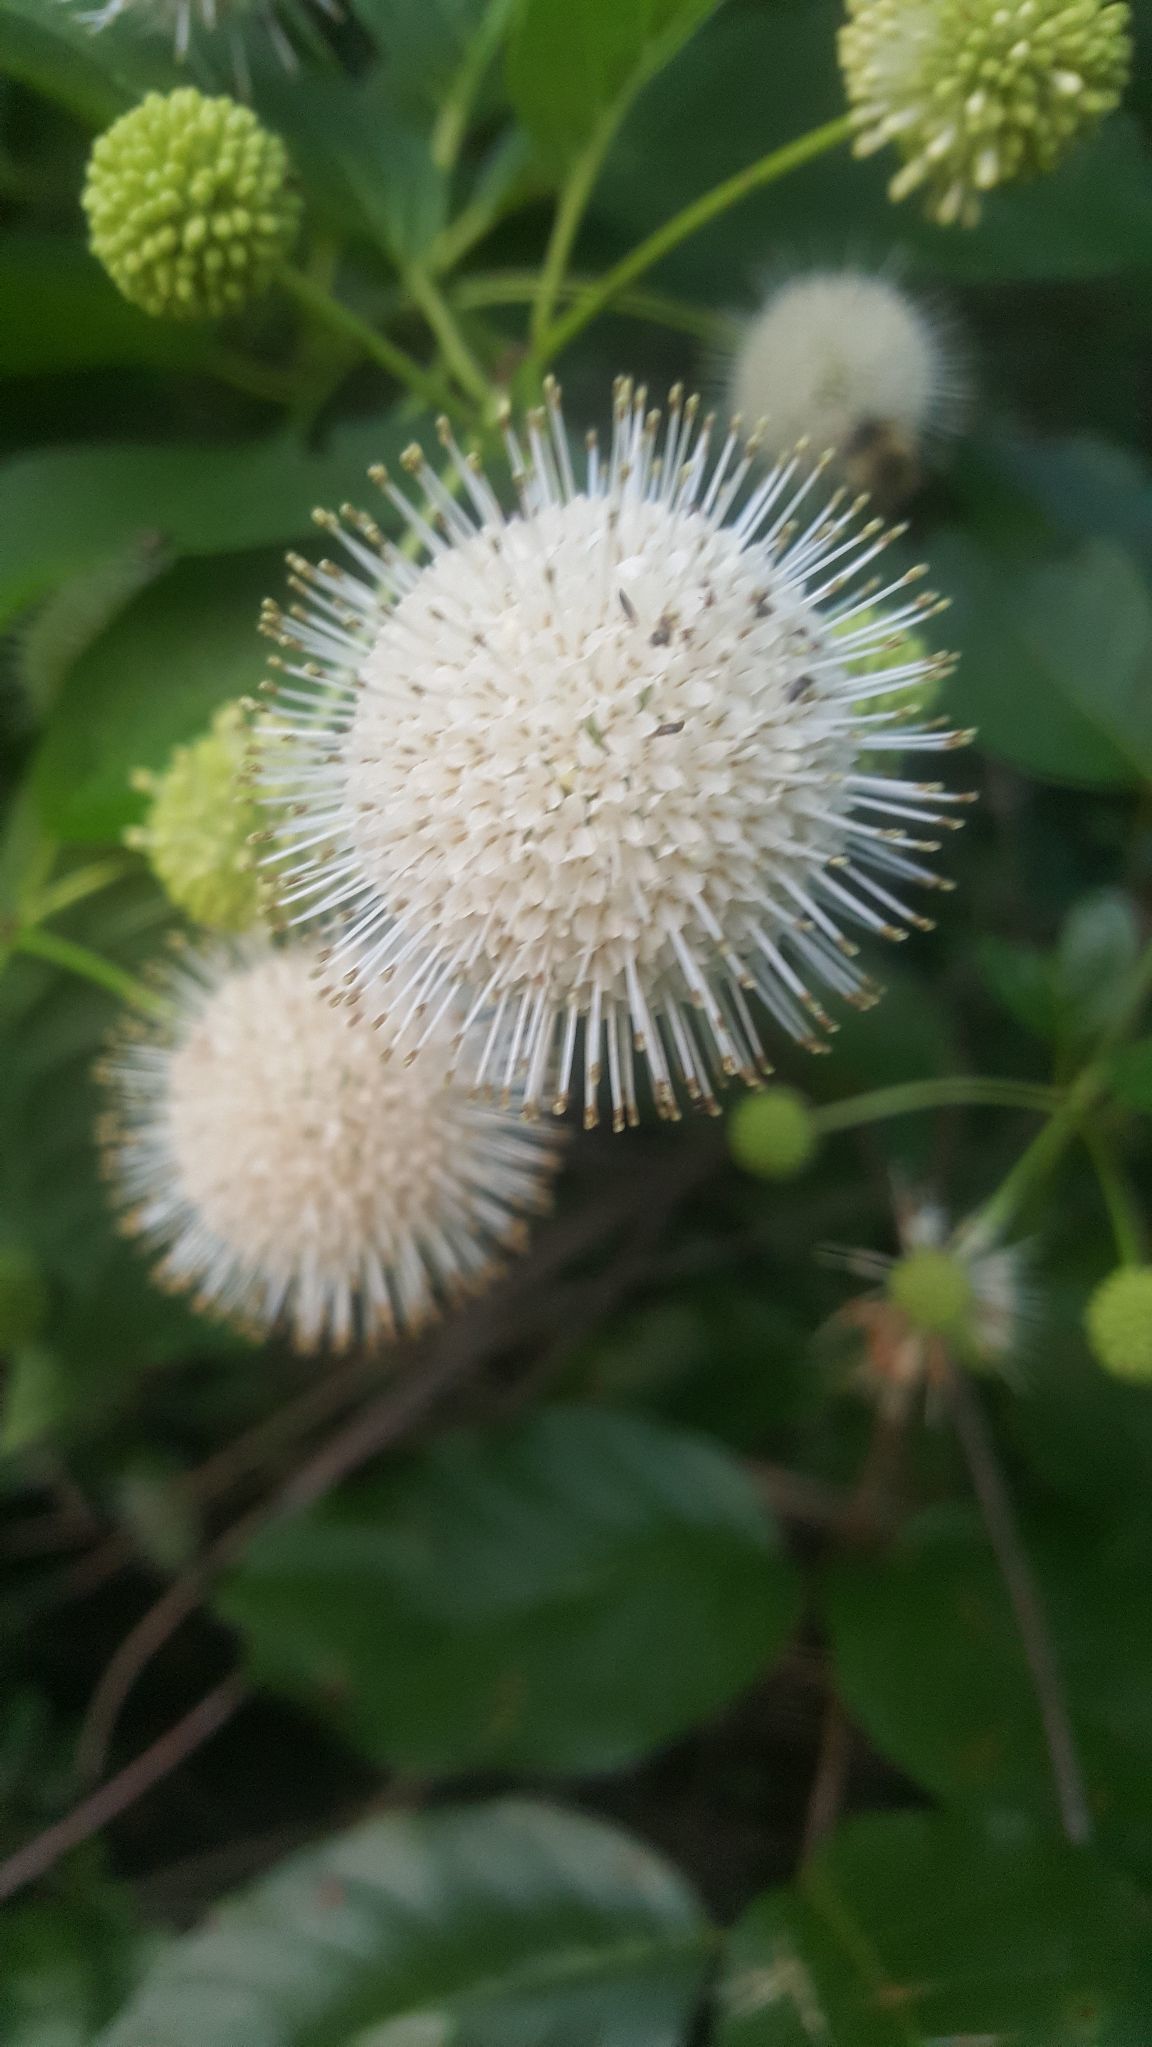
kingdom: Plantae
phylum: Tracheophyta
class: Magnoliopsida
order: Gentianales
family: Rubiaceae
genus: Cephalanthus
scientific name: Cephalanthus occidentalis
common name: Button-willow
